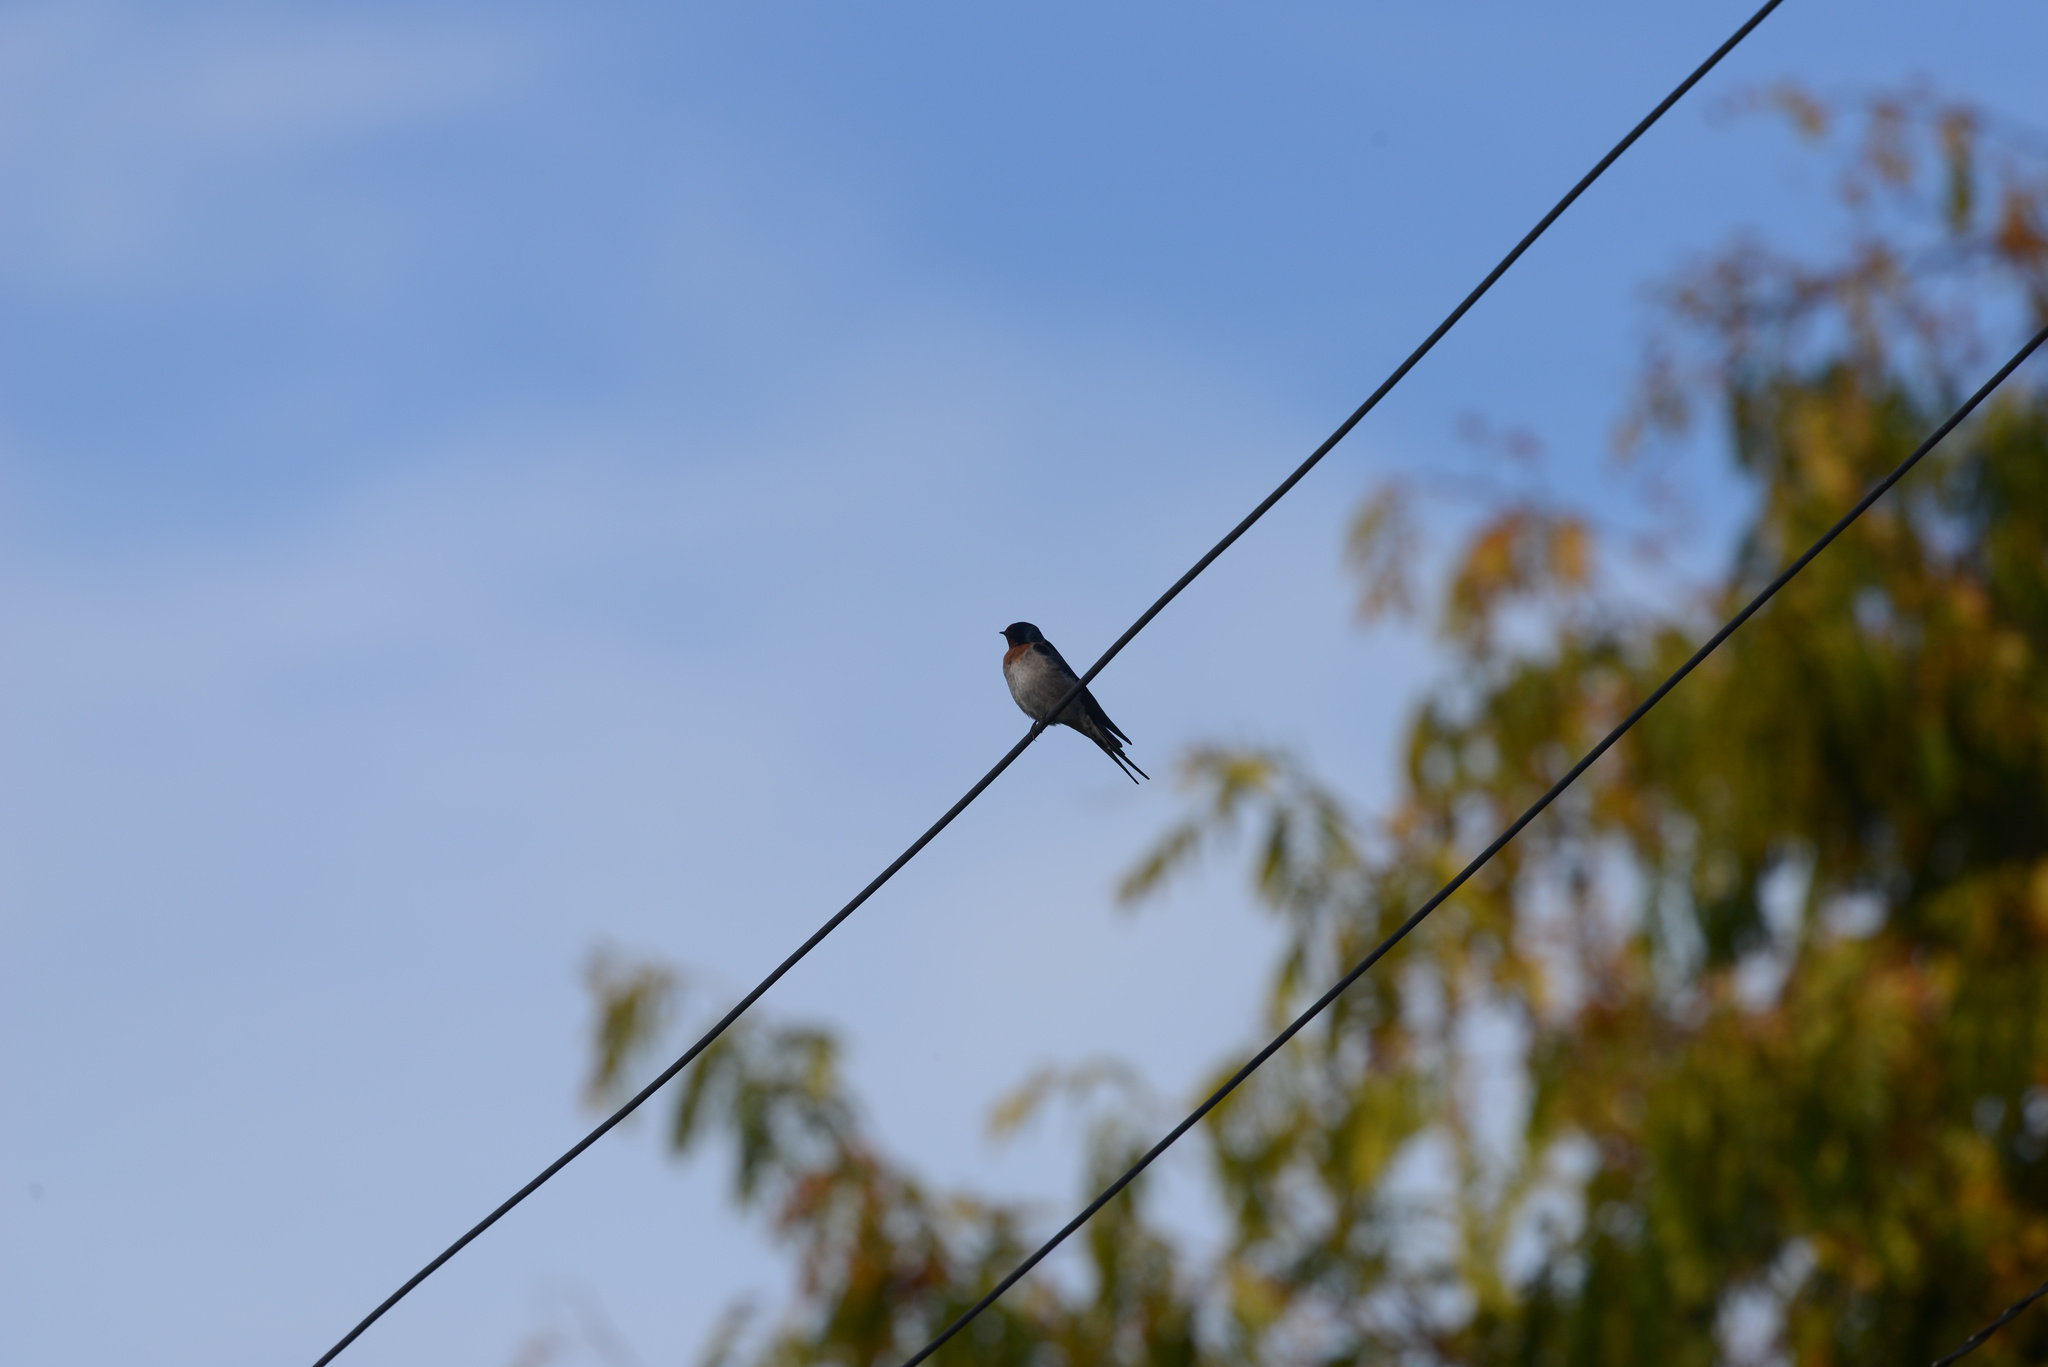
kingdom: Animalia
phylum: Chordata
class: Aves
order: Passeriformes
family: Hirundinidae
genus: Hirundo
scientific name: Hirundo neoxena
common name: Welcome swallow
